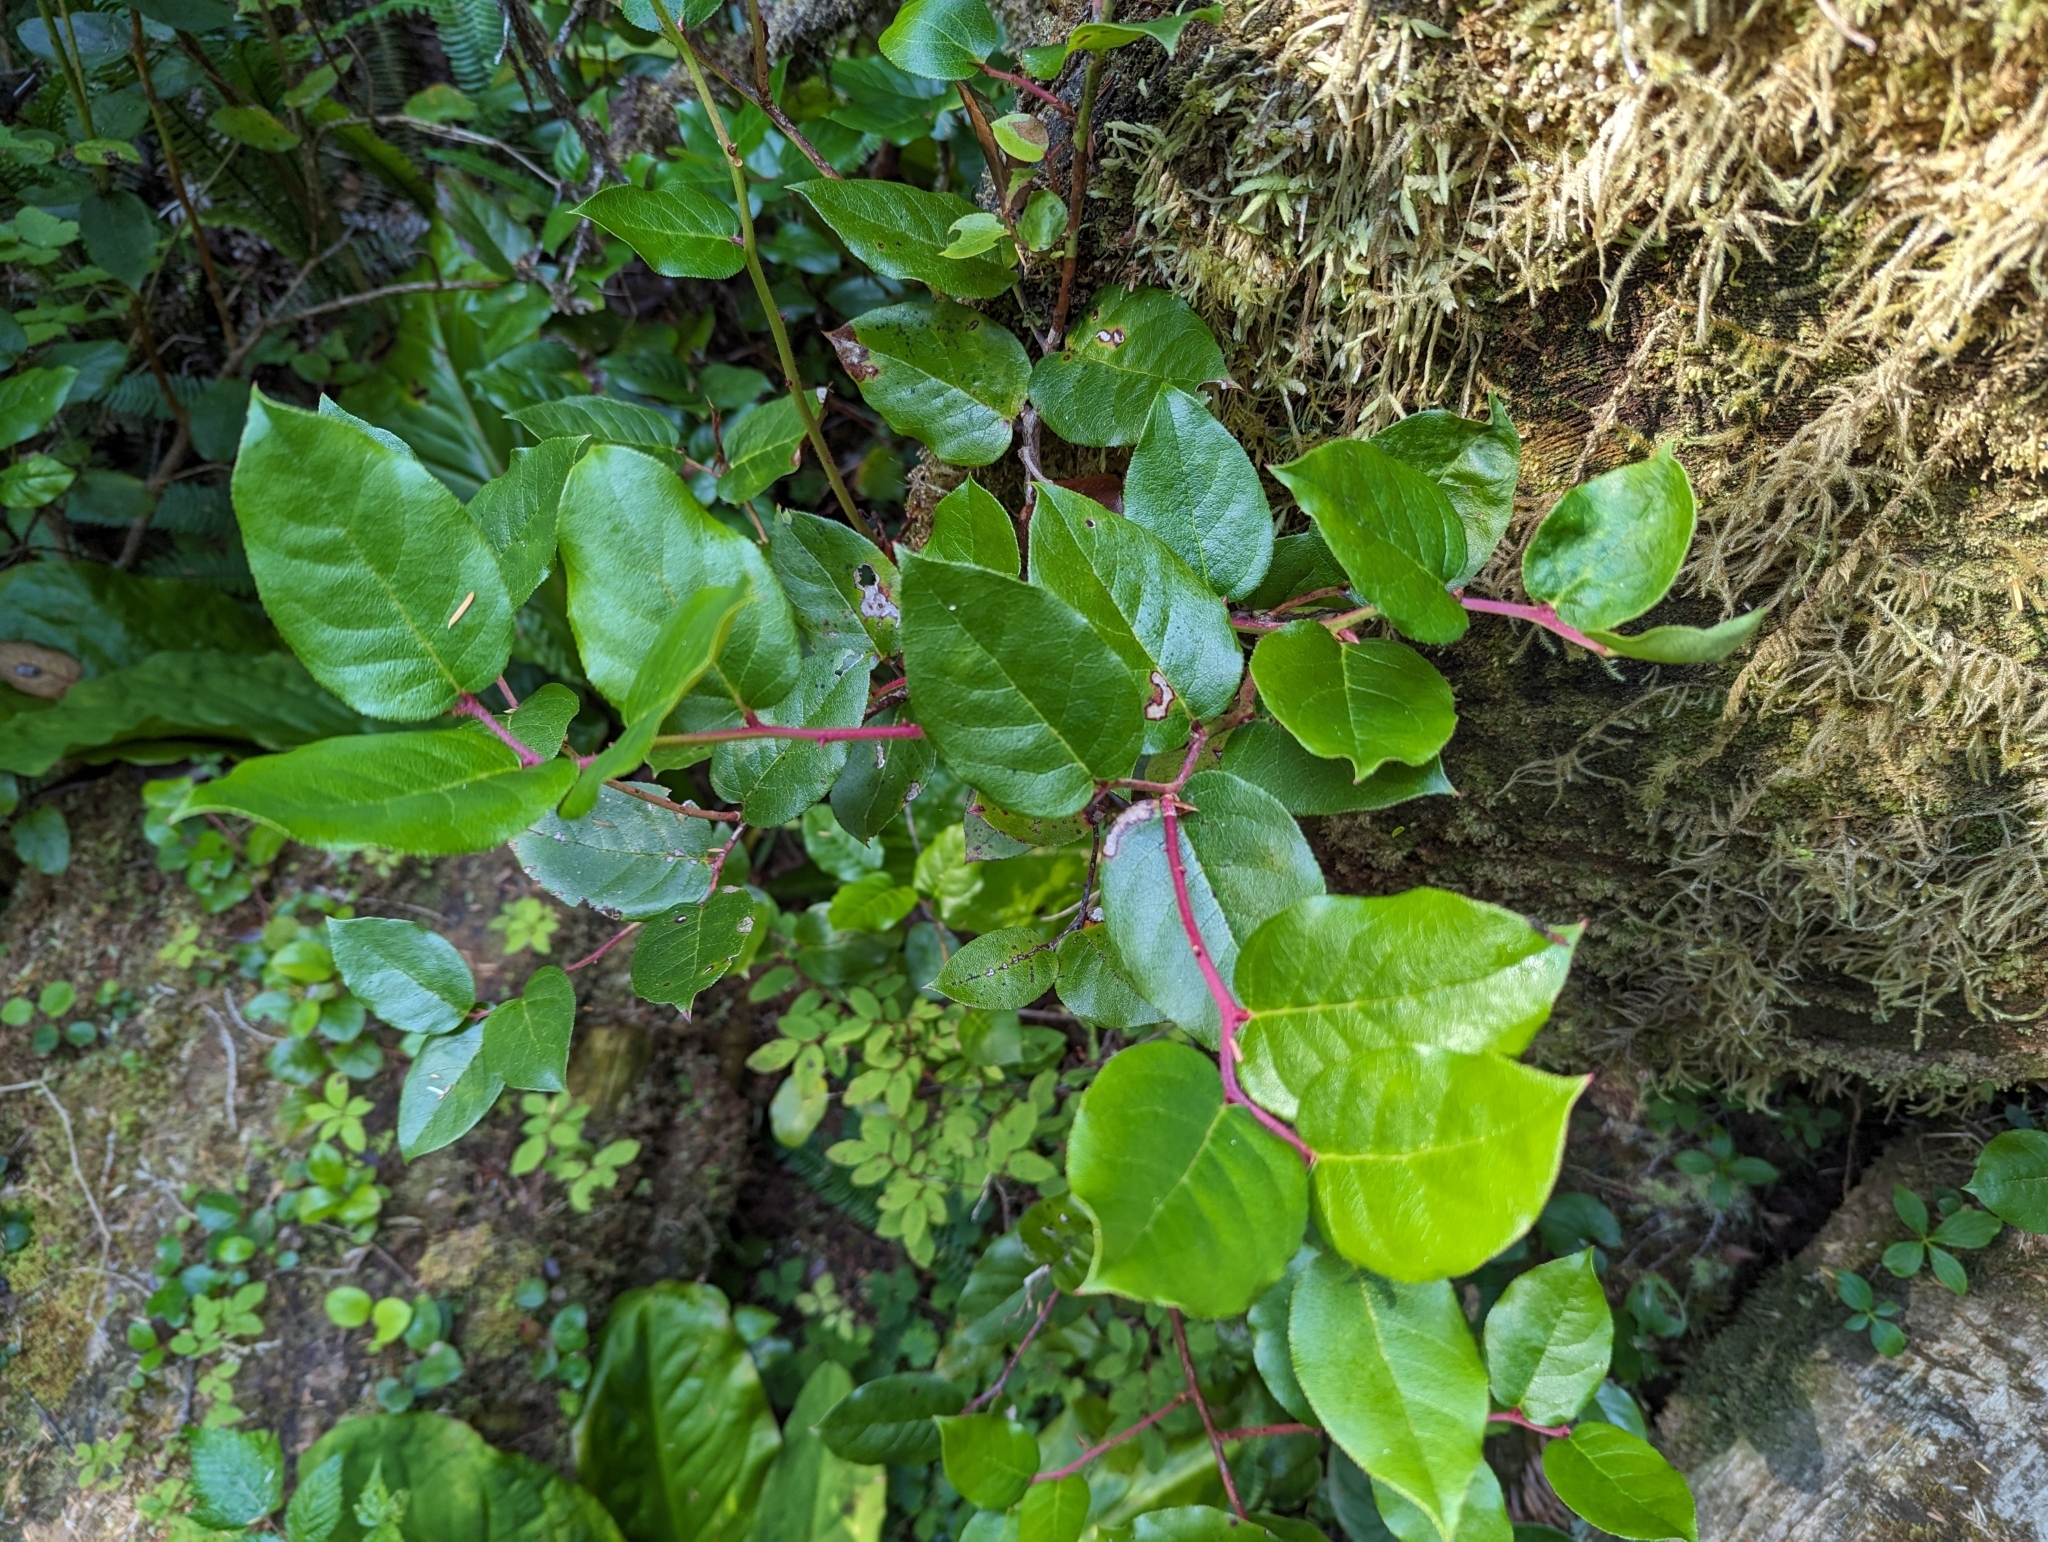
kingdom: Plantae
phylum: Tracheophyta
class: Magnoliopsida
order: Ericales
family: Ericaceae
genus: Gaultheria
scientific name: Gaultheria shallon
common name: Shallon
